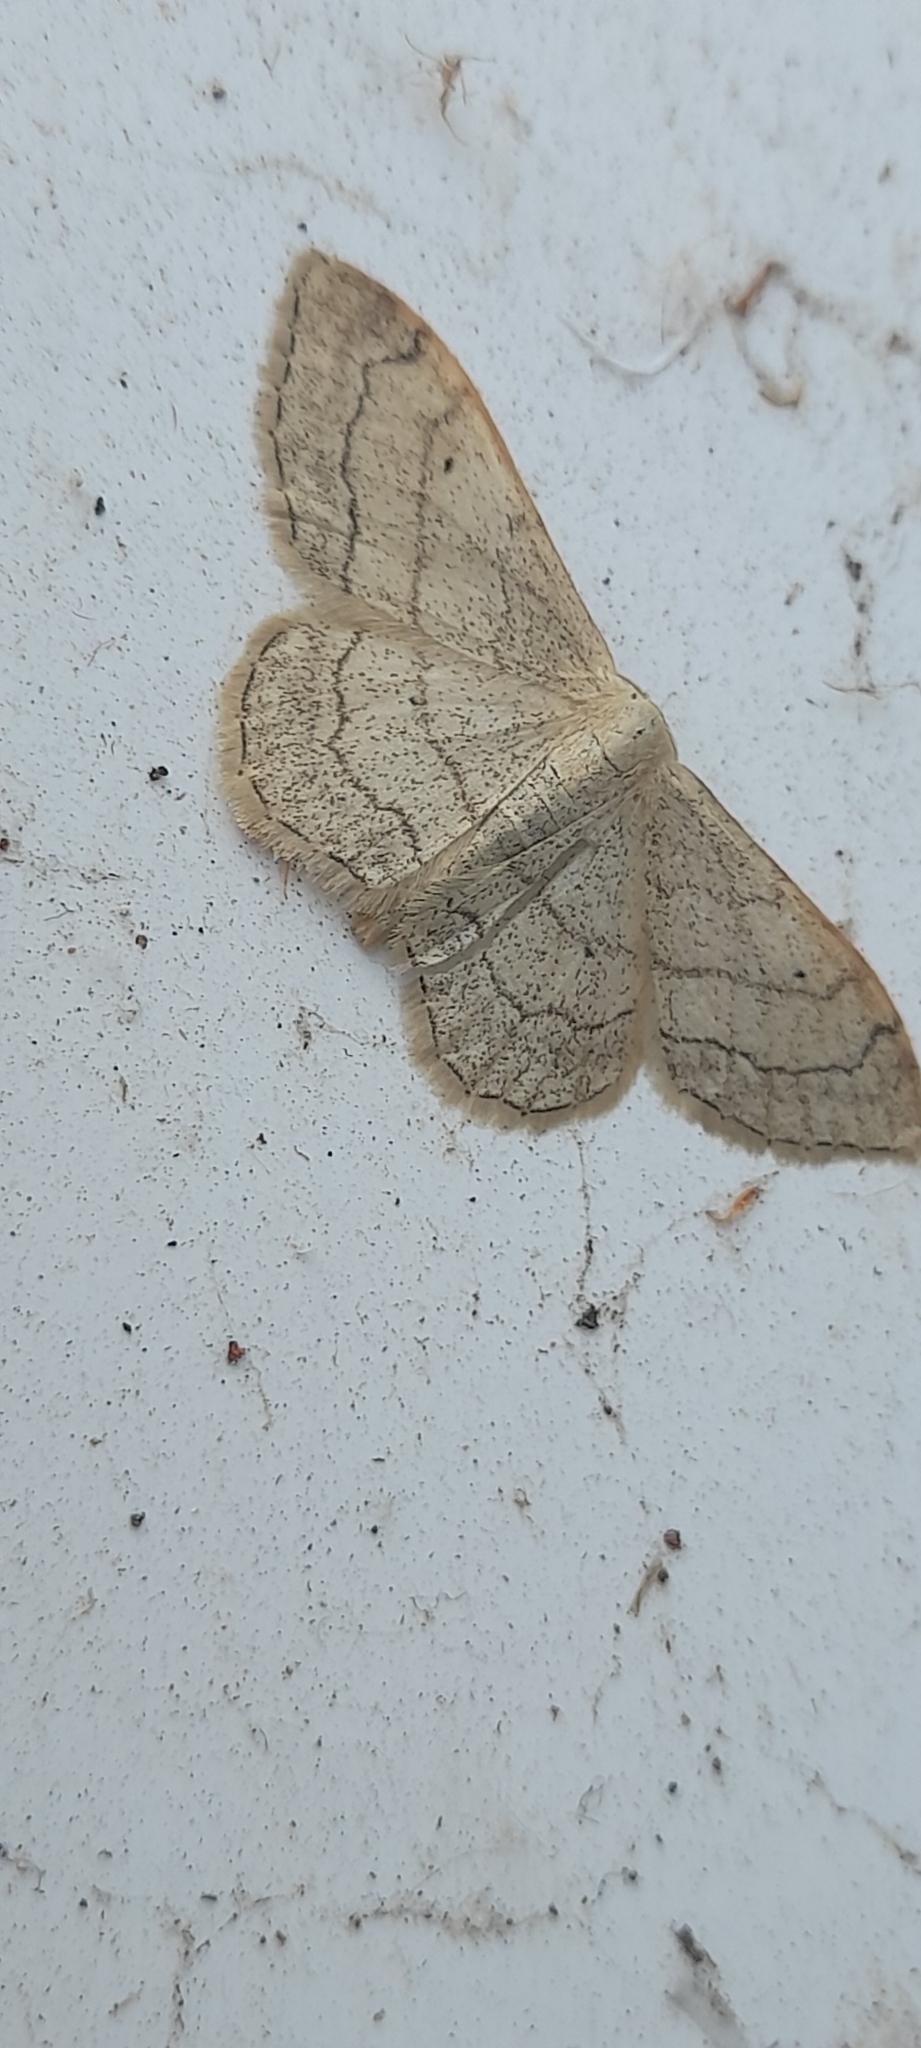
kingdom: Animalia
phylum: Arthropoda
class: Insecta
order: Lepidoptera
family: Geometridae
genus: Idaea
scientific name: Idaea aversata
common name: Riband wave
